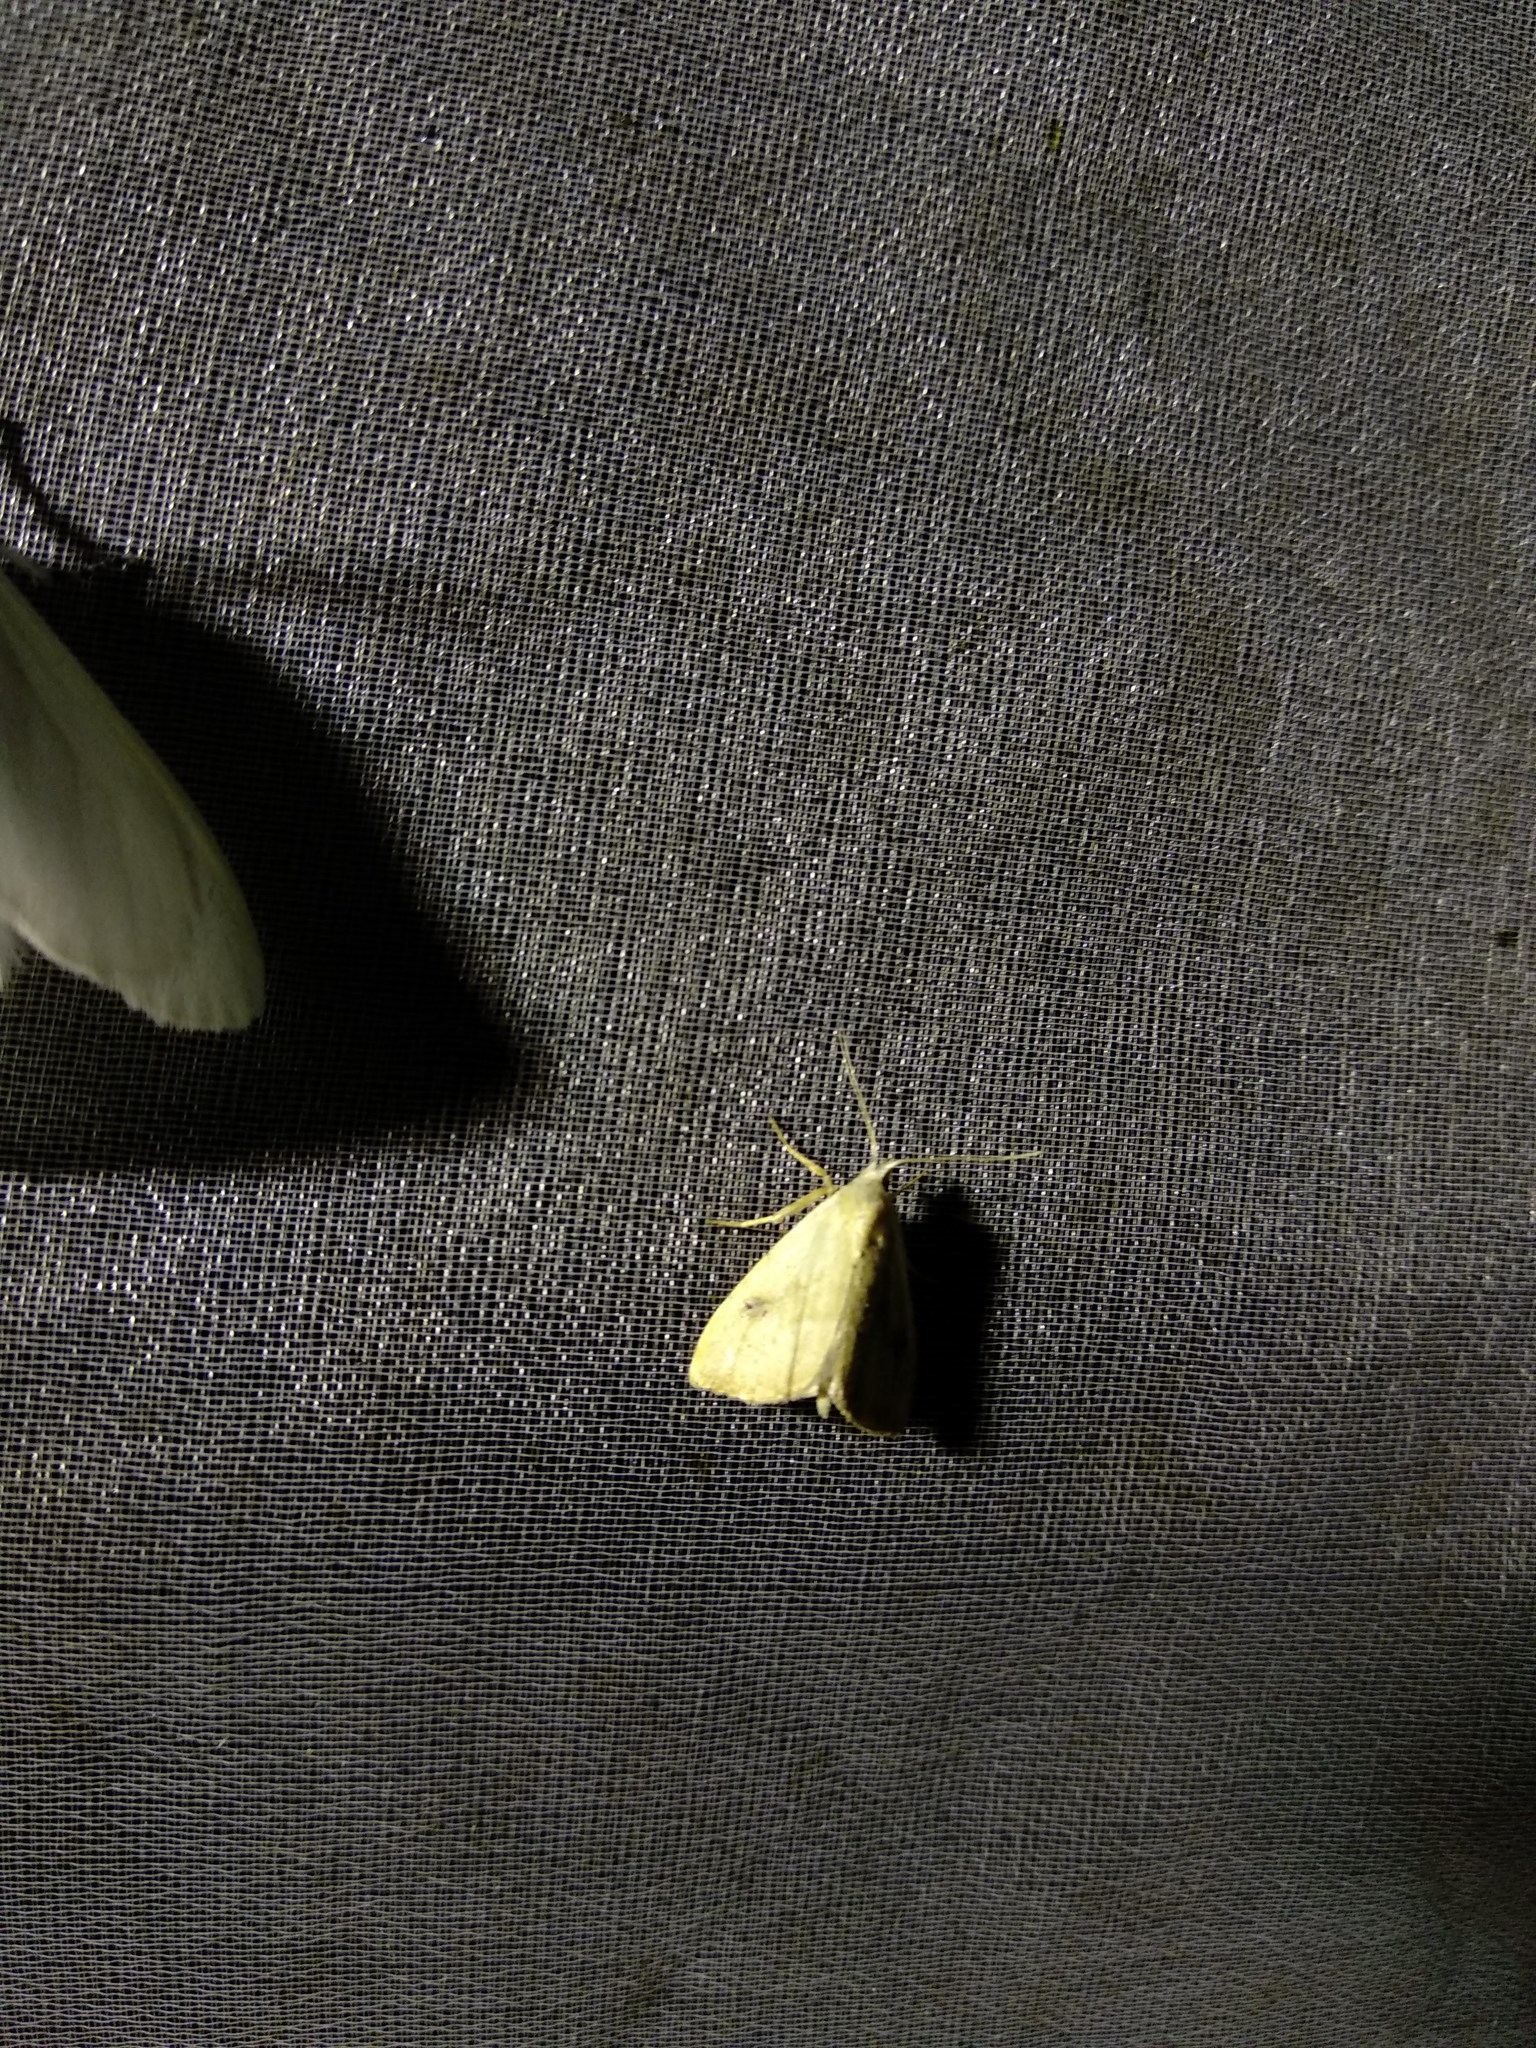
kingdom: Animalia
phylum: Arthropoda
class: Insecta
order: Lepidoptera
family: Erebidae
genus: Rivula
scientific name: Rivula sericealis
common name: Straw dot
